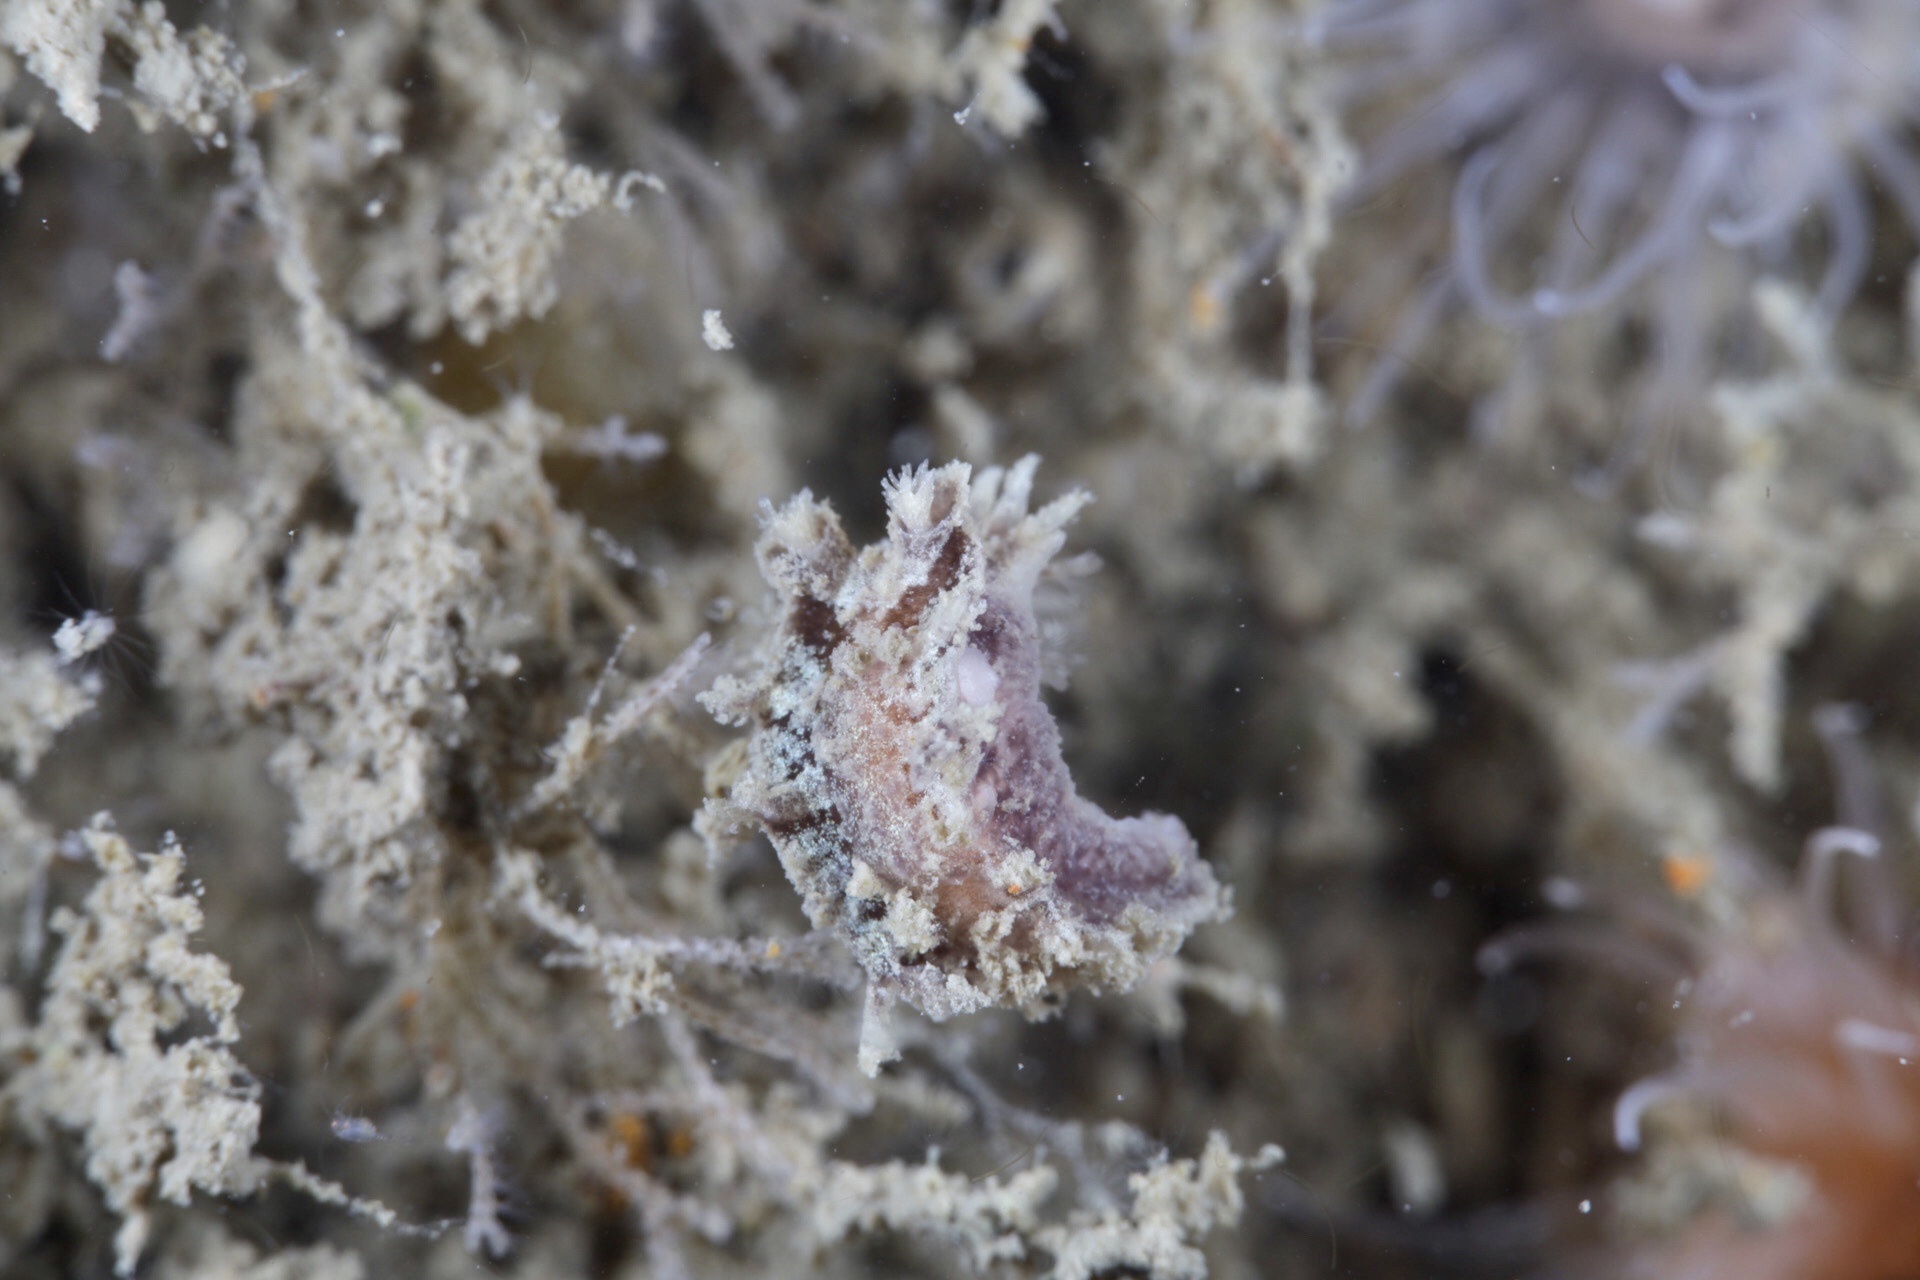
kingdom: Animalia
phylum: Mollusca
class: Gastropoda
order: Nudibranchia
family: Tritoniidae
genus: Duvaucelia
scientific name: Duvaucelia plebeia
